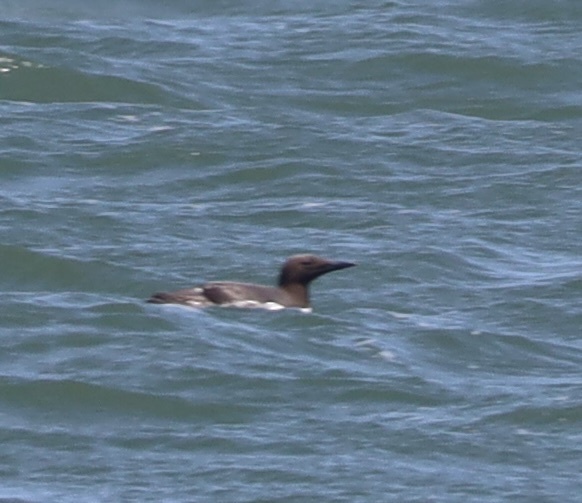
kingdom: Animalia
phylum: Chordata
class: Aves
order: Charadriiformes
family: Alcidae
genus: Uria
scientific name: Uria aalge
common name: Common murre
